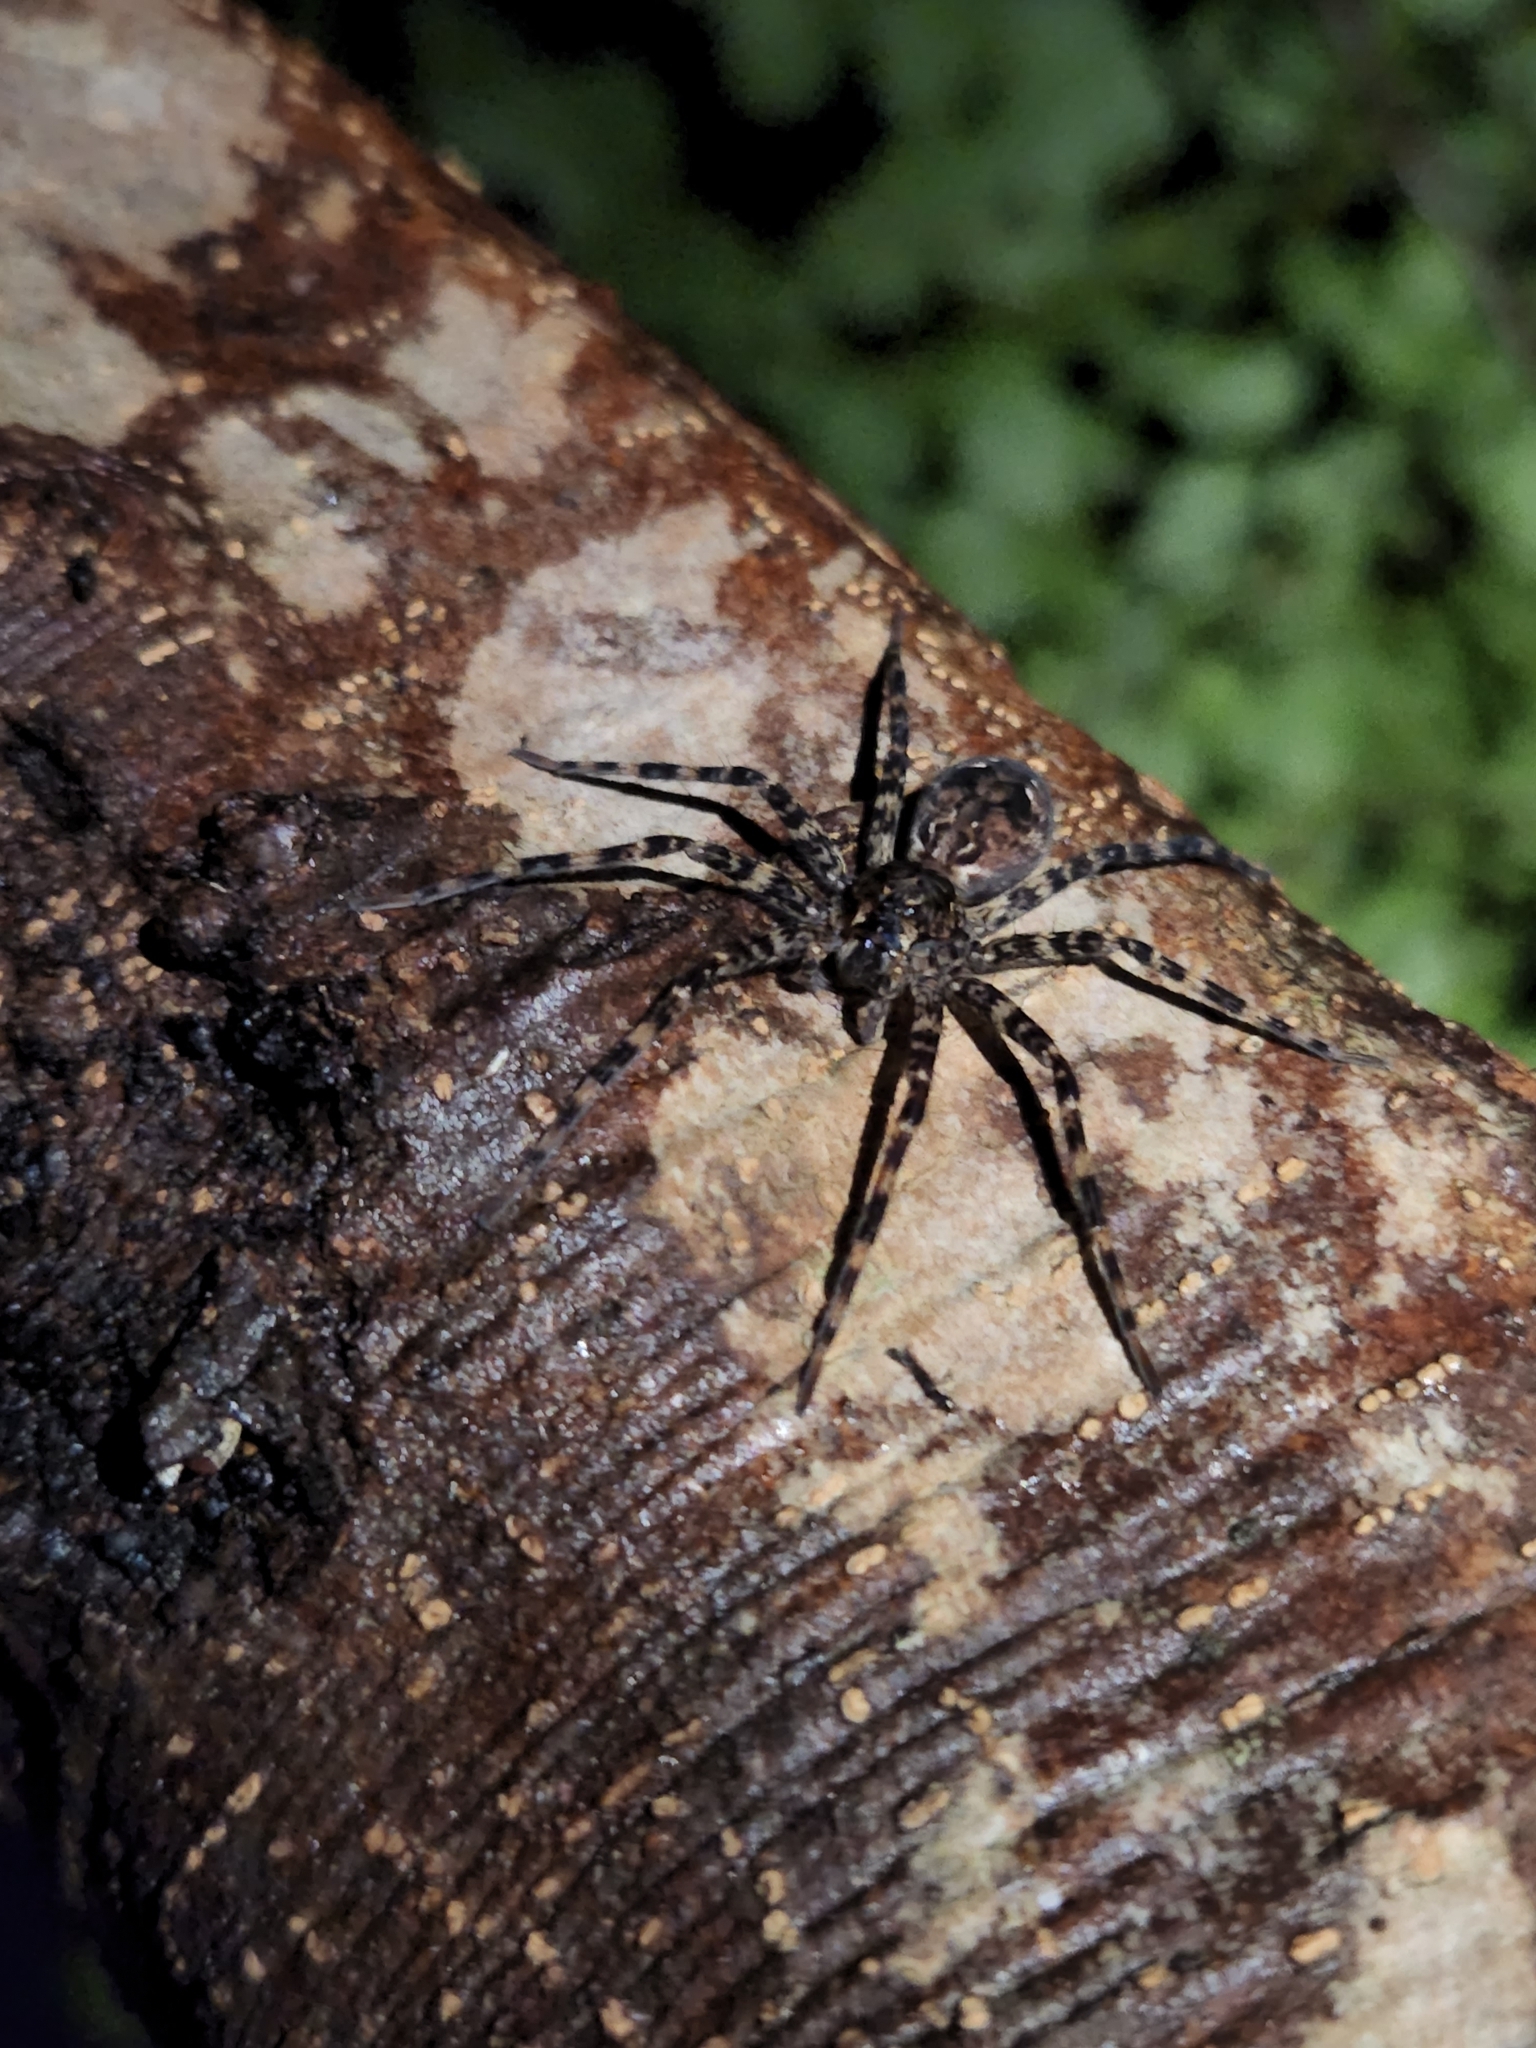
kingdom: Animalia
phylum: Arthropoda
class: Arachnida
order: Araneae
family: Pisauridae
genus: Dolomedes
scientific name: Dolomedes tenebrosus
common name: Dark fishing spider
